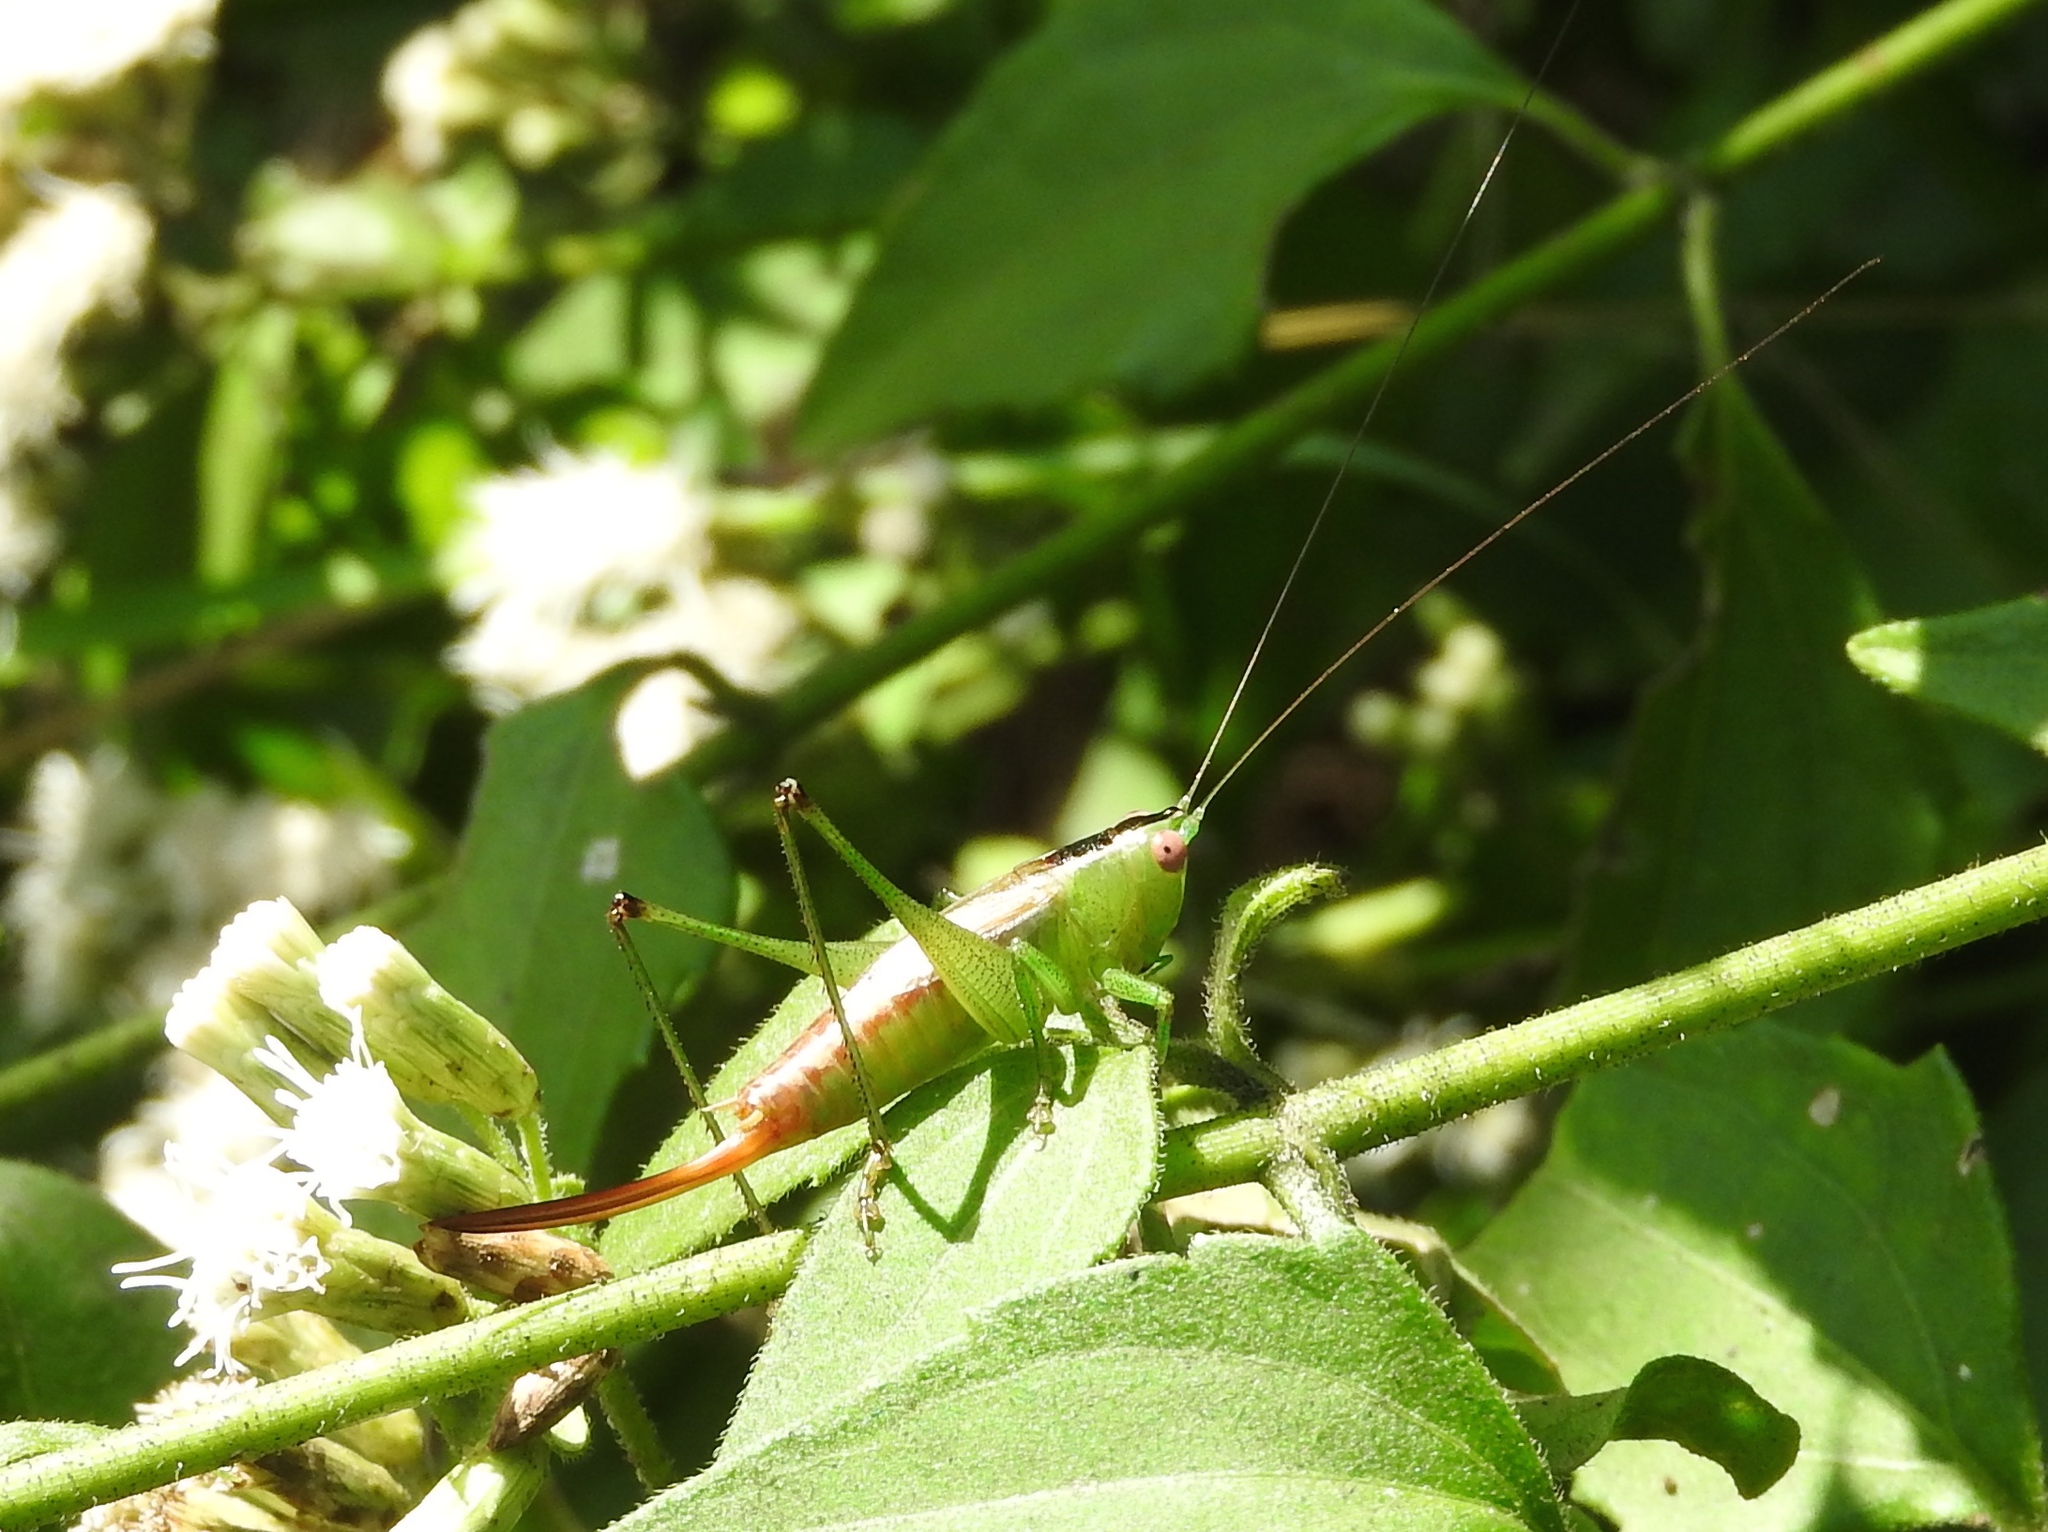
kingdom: Animalia
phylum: Arthropoda
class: Insecta
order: Orthoptera
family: Tettigoniidae
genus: Conocephalus
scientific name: Conocephalus ictus
